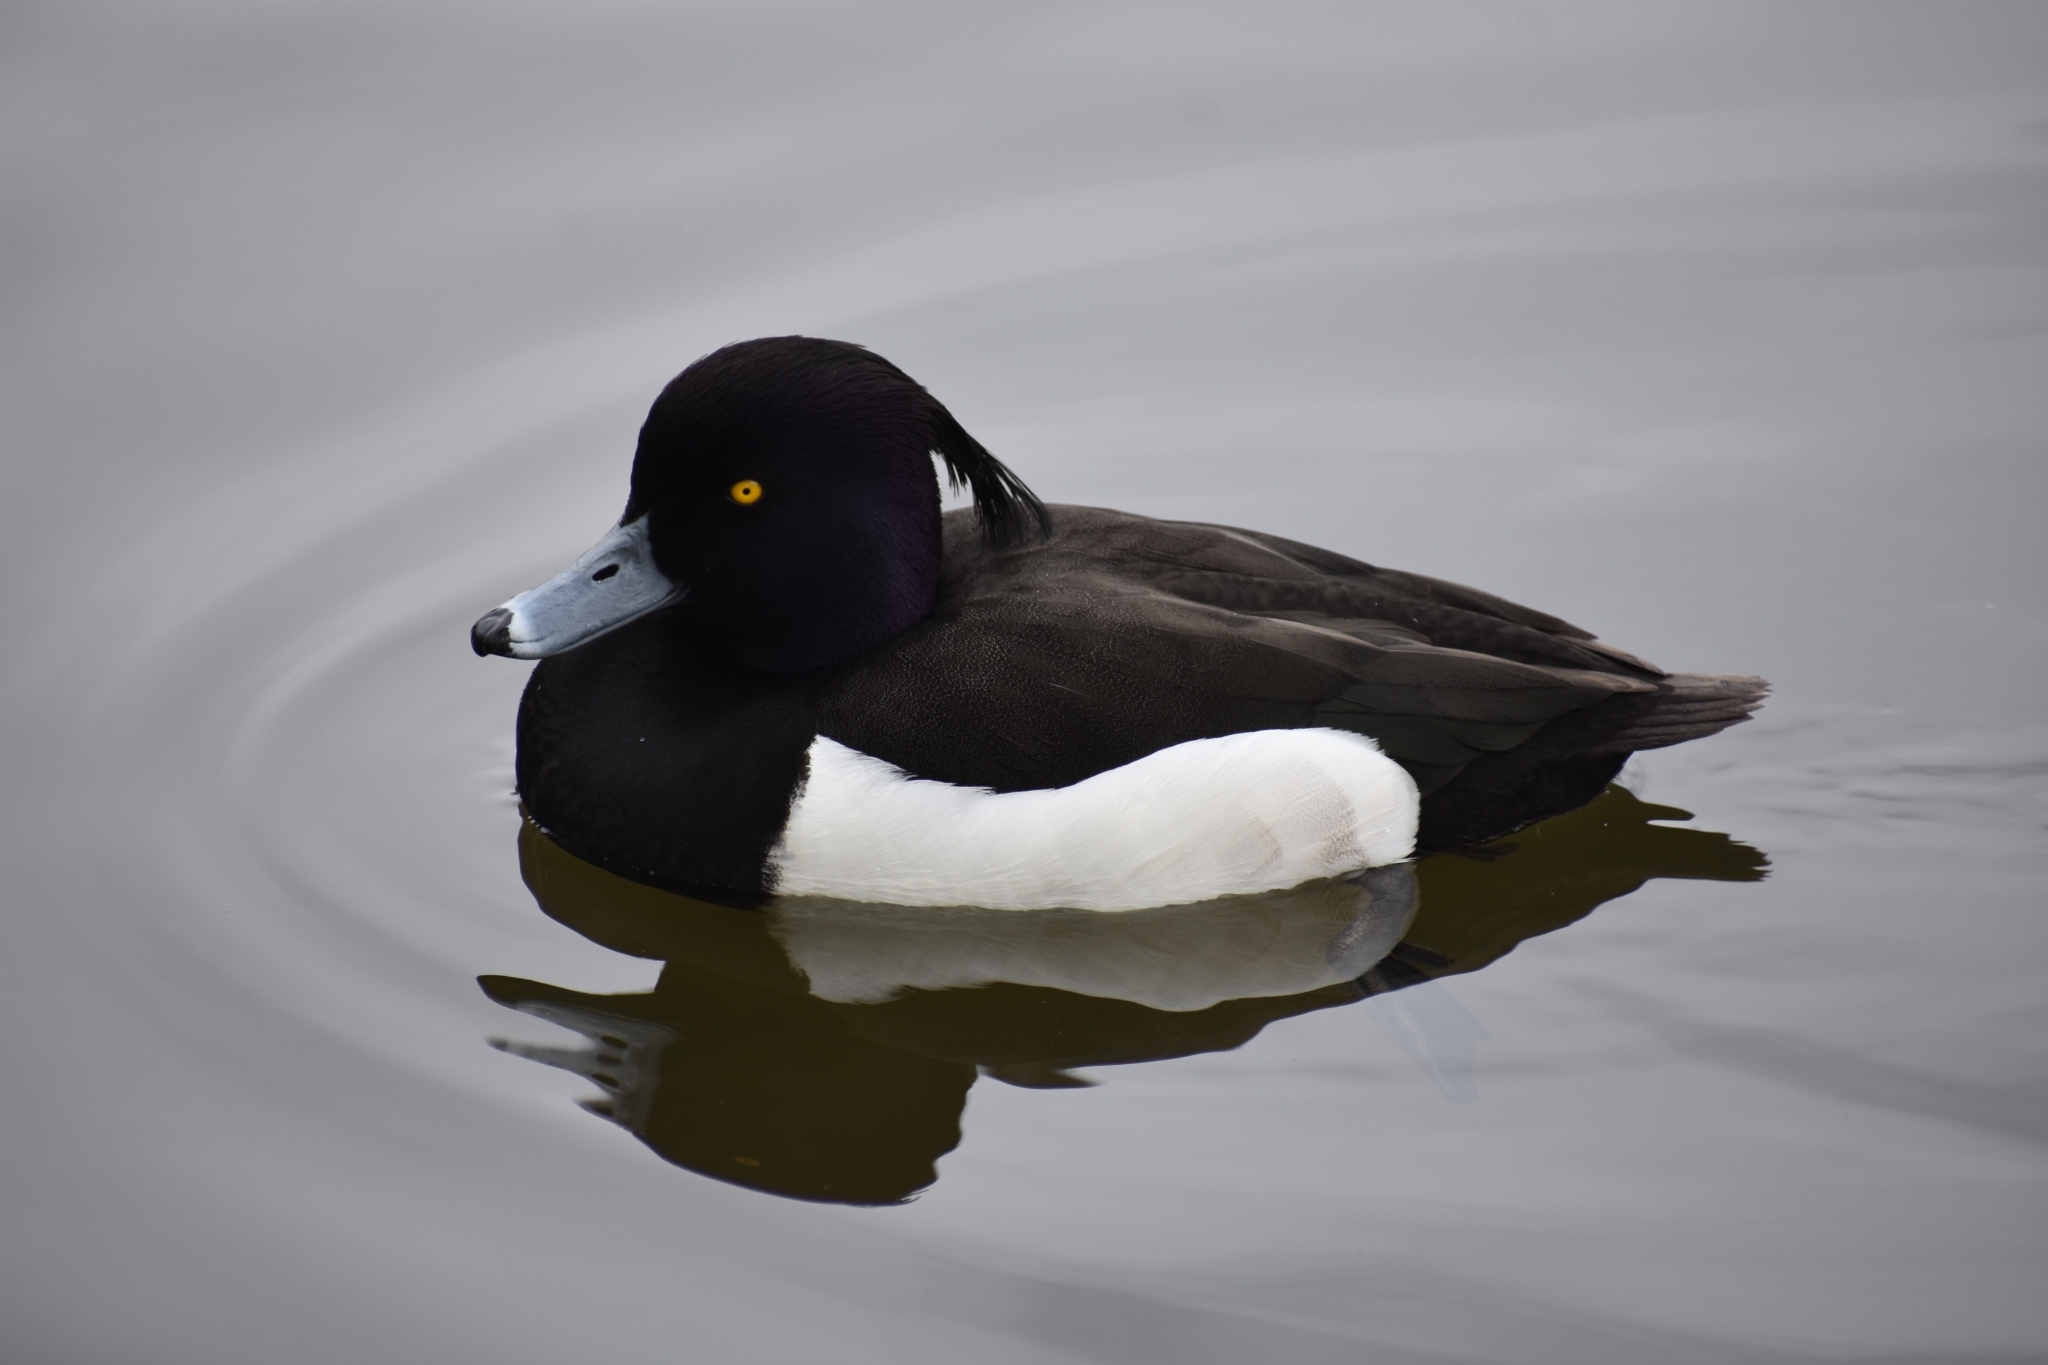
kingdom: Animalia
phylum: Chordata
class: Aves
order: Anseriformes
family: Anatidae
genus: Aythya
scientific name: Aythya fuligula
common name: Tufted duck
